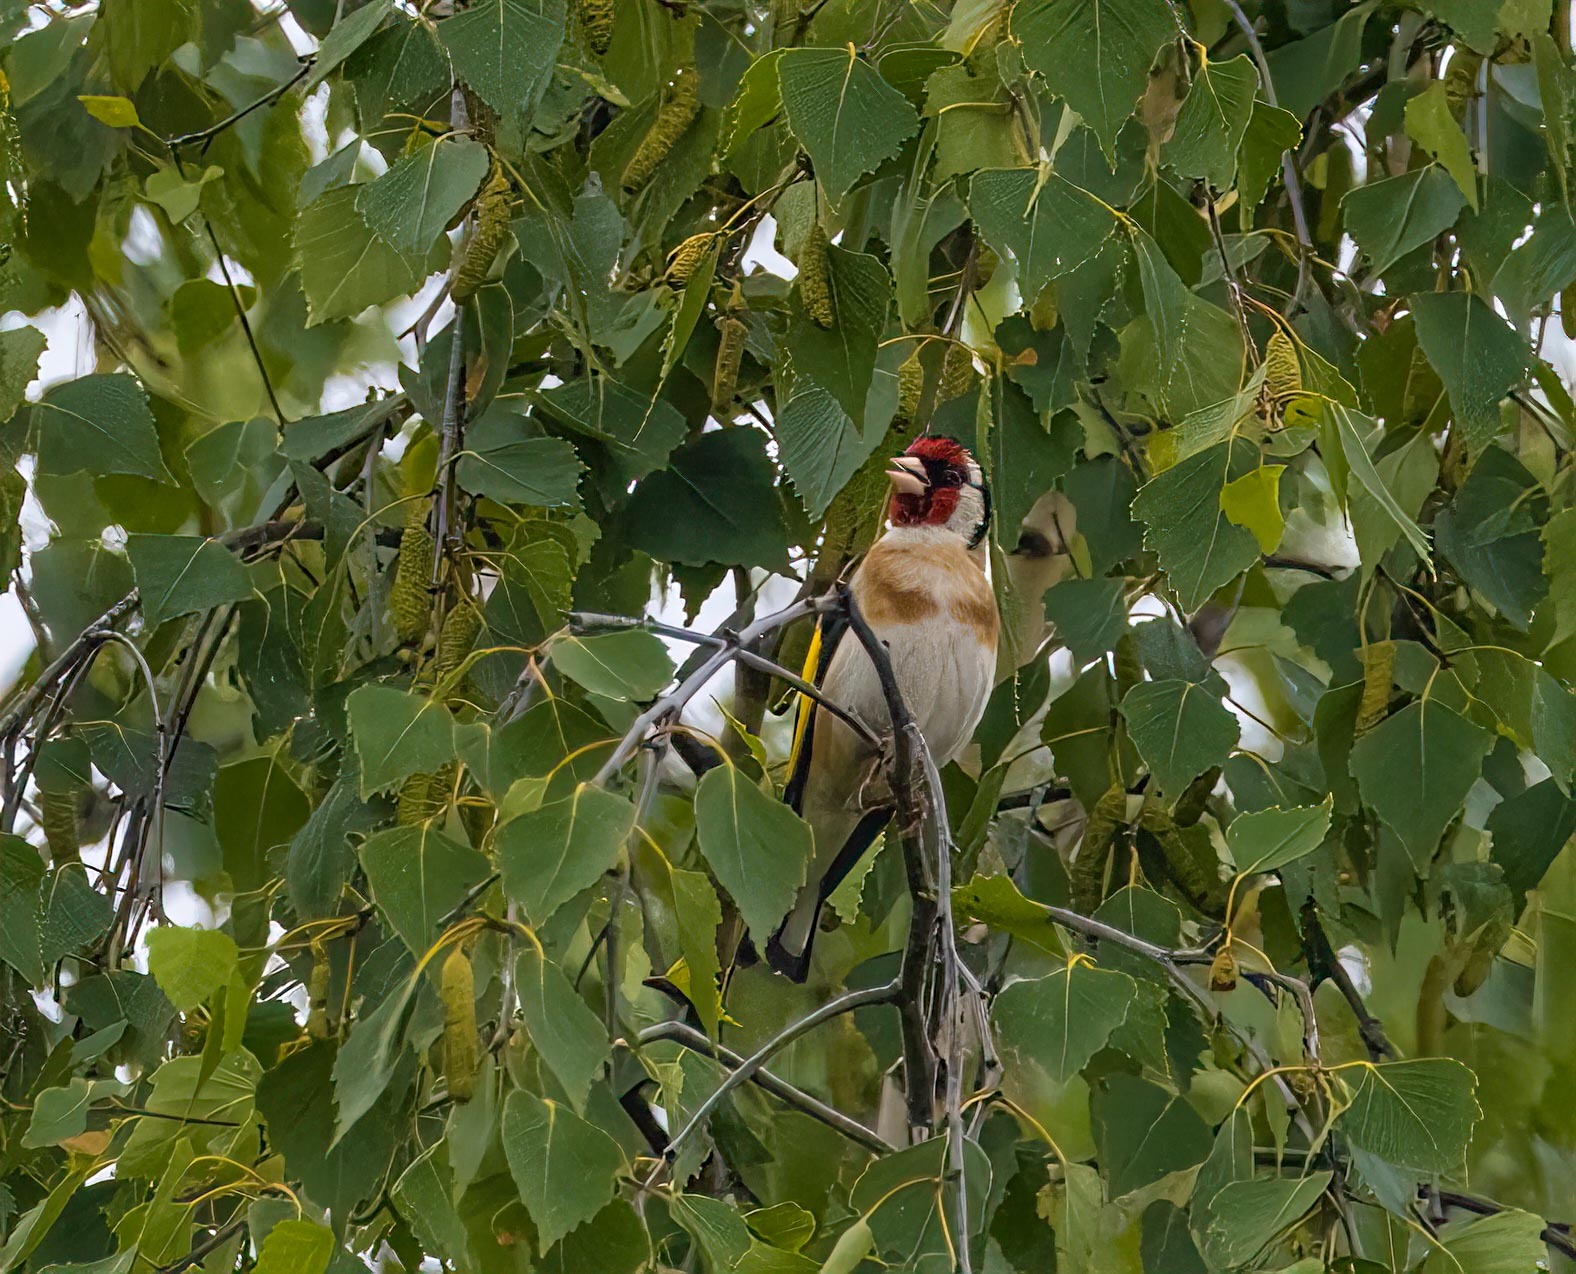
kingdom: Animalia
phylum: Chordata
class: Aves
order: Passeriformes
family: Fringillidae
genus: Carduelis
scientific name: Carduelis carduelis
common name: European goldfinch
